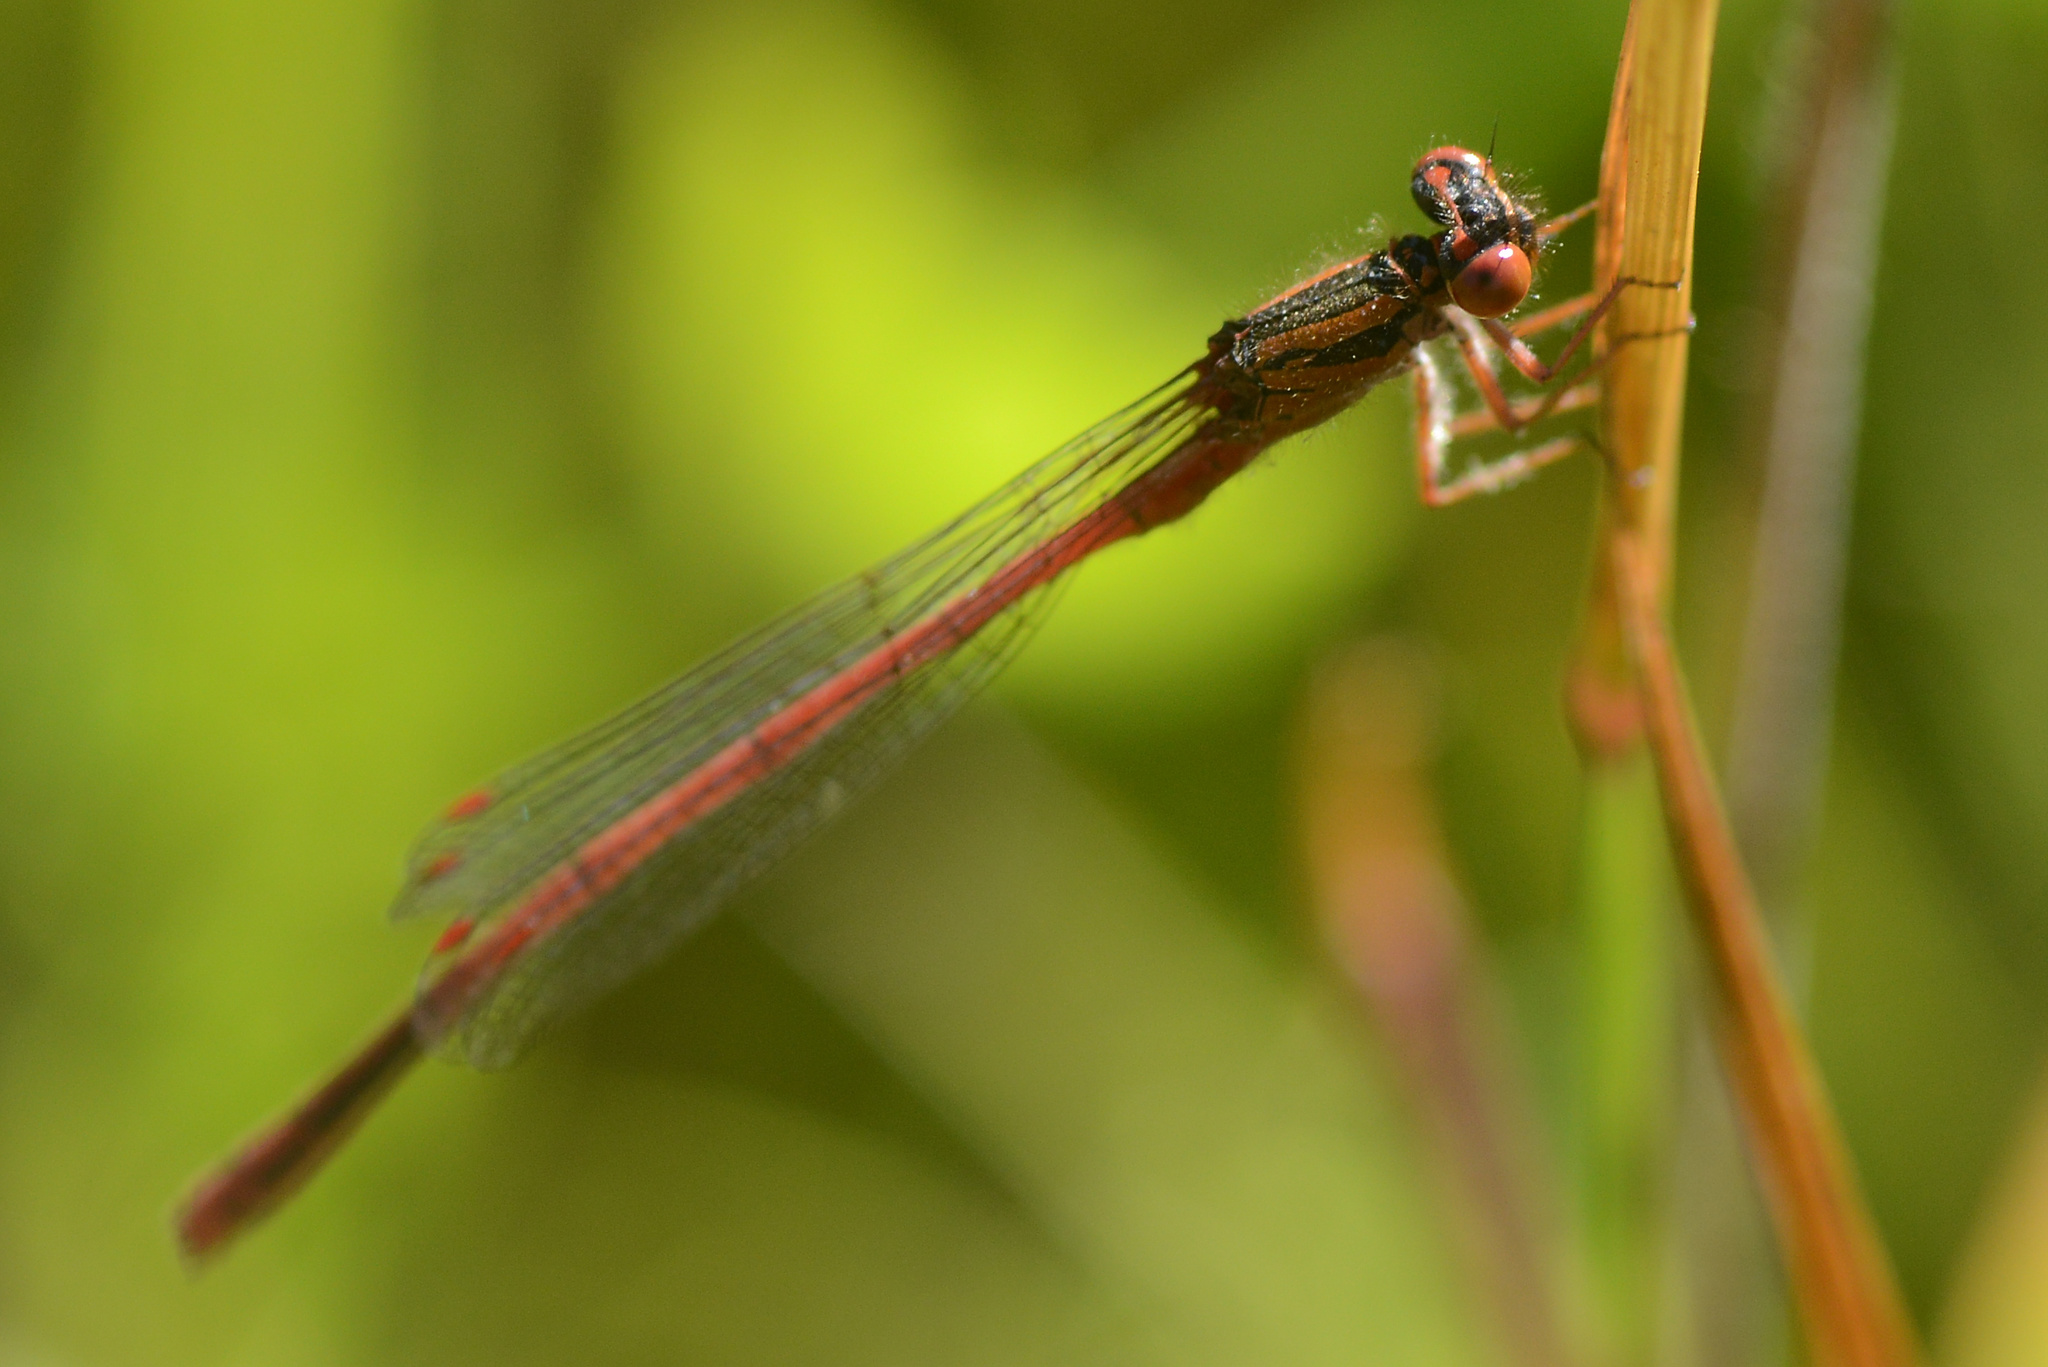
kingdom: Animalia
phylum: Arthropoda
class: Insecta
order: Odonata
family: Coenagrionidae
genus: Xanthocnemis
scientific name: Xanthocnemis zealandica
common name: Common redcoat damselfly
